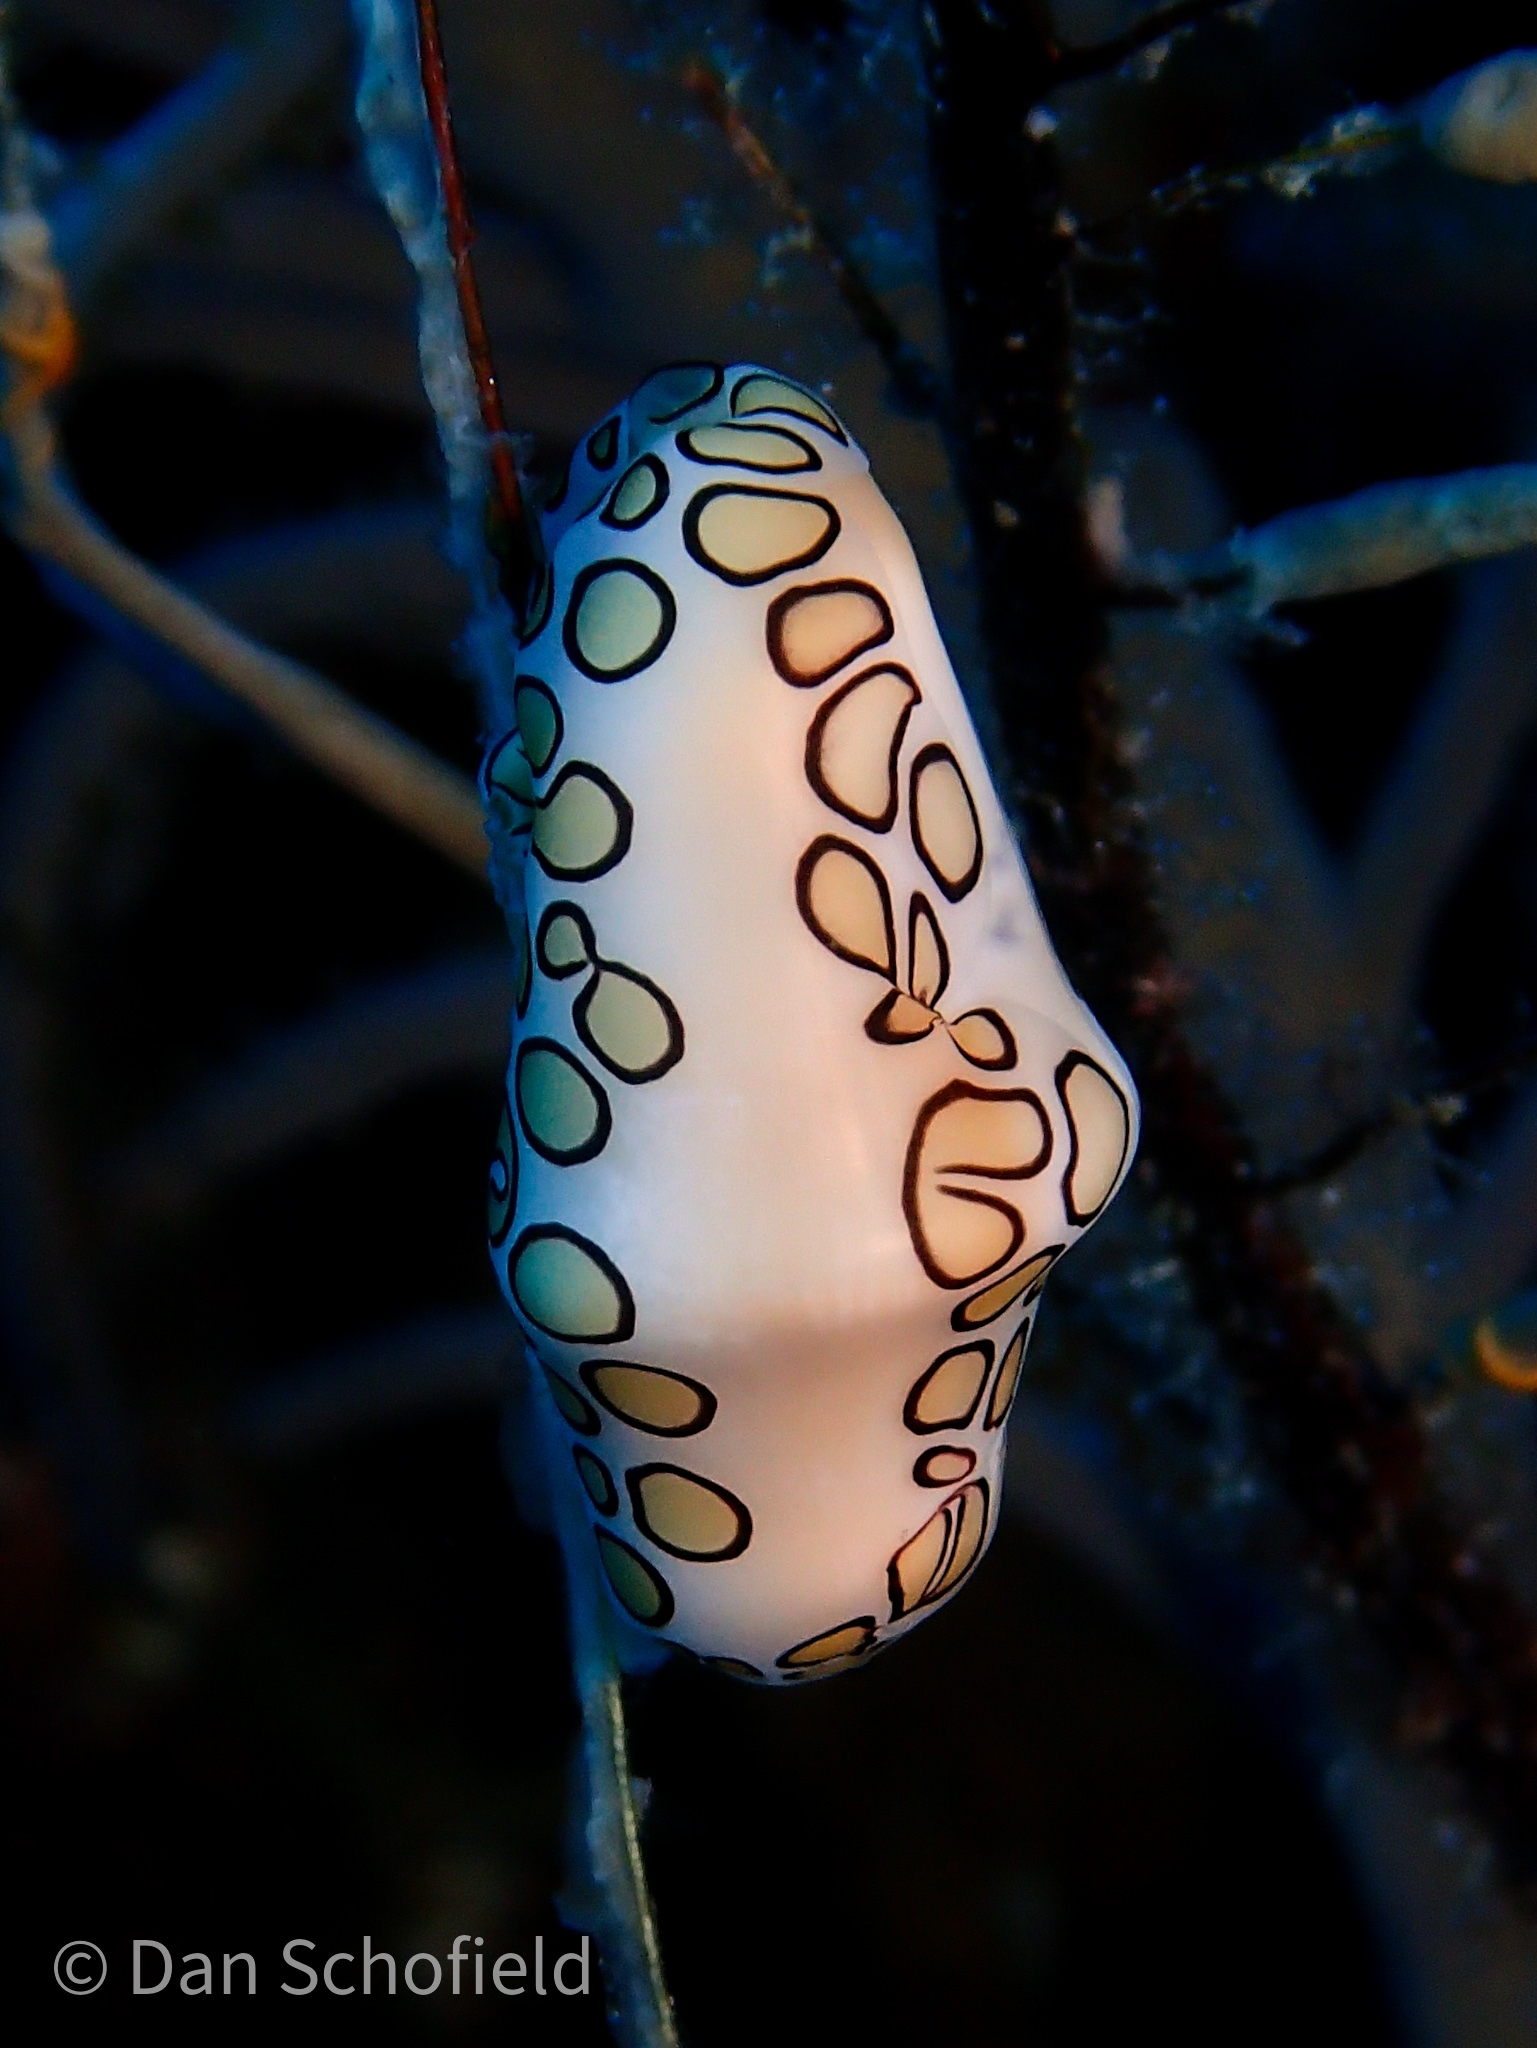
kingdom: Animalia
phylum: Mollusca
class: Gastropoda
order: Littorinimorpha
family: Ovulidae
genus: Cyphoma
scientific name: Cyphoma gibbosum
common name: Flamingo tongue
